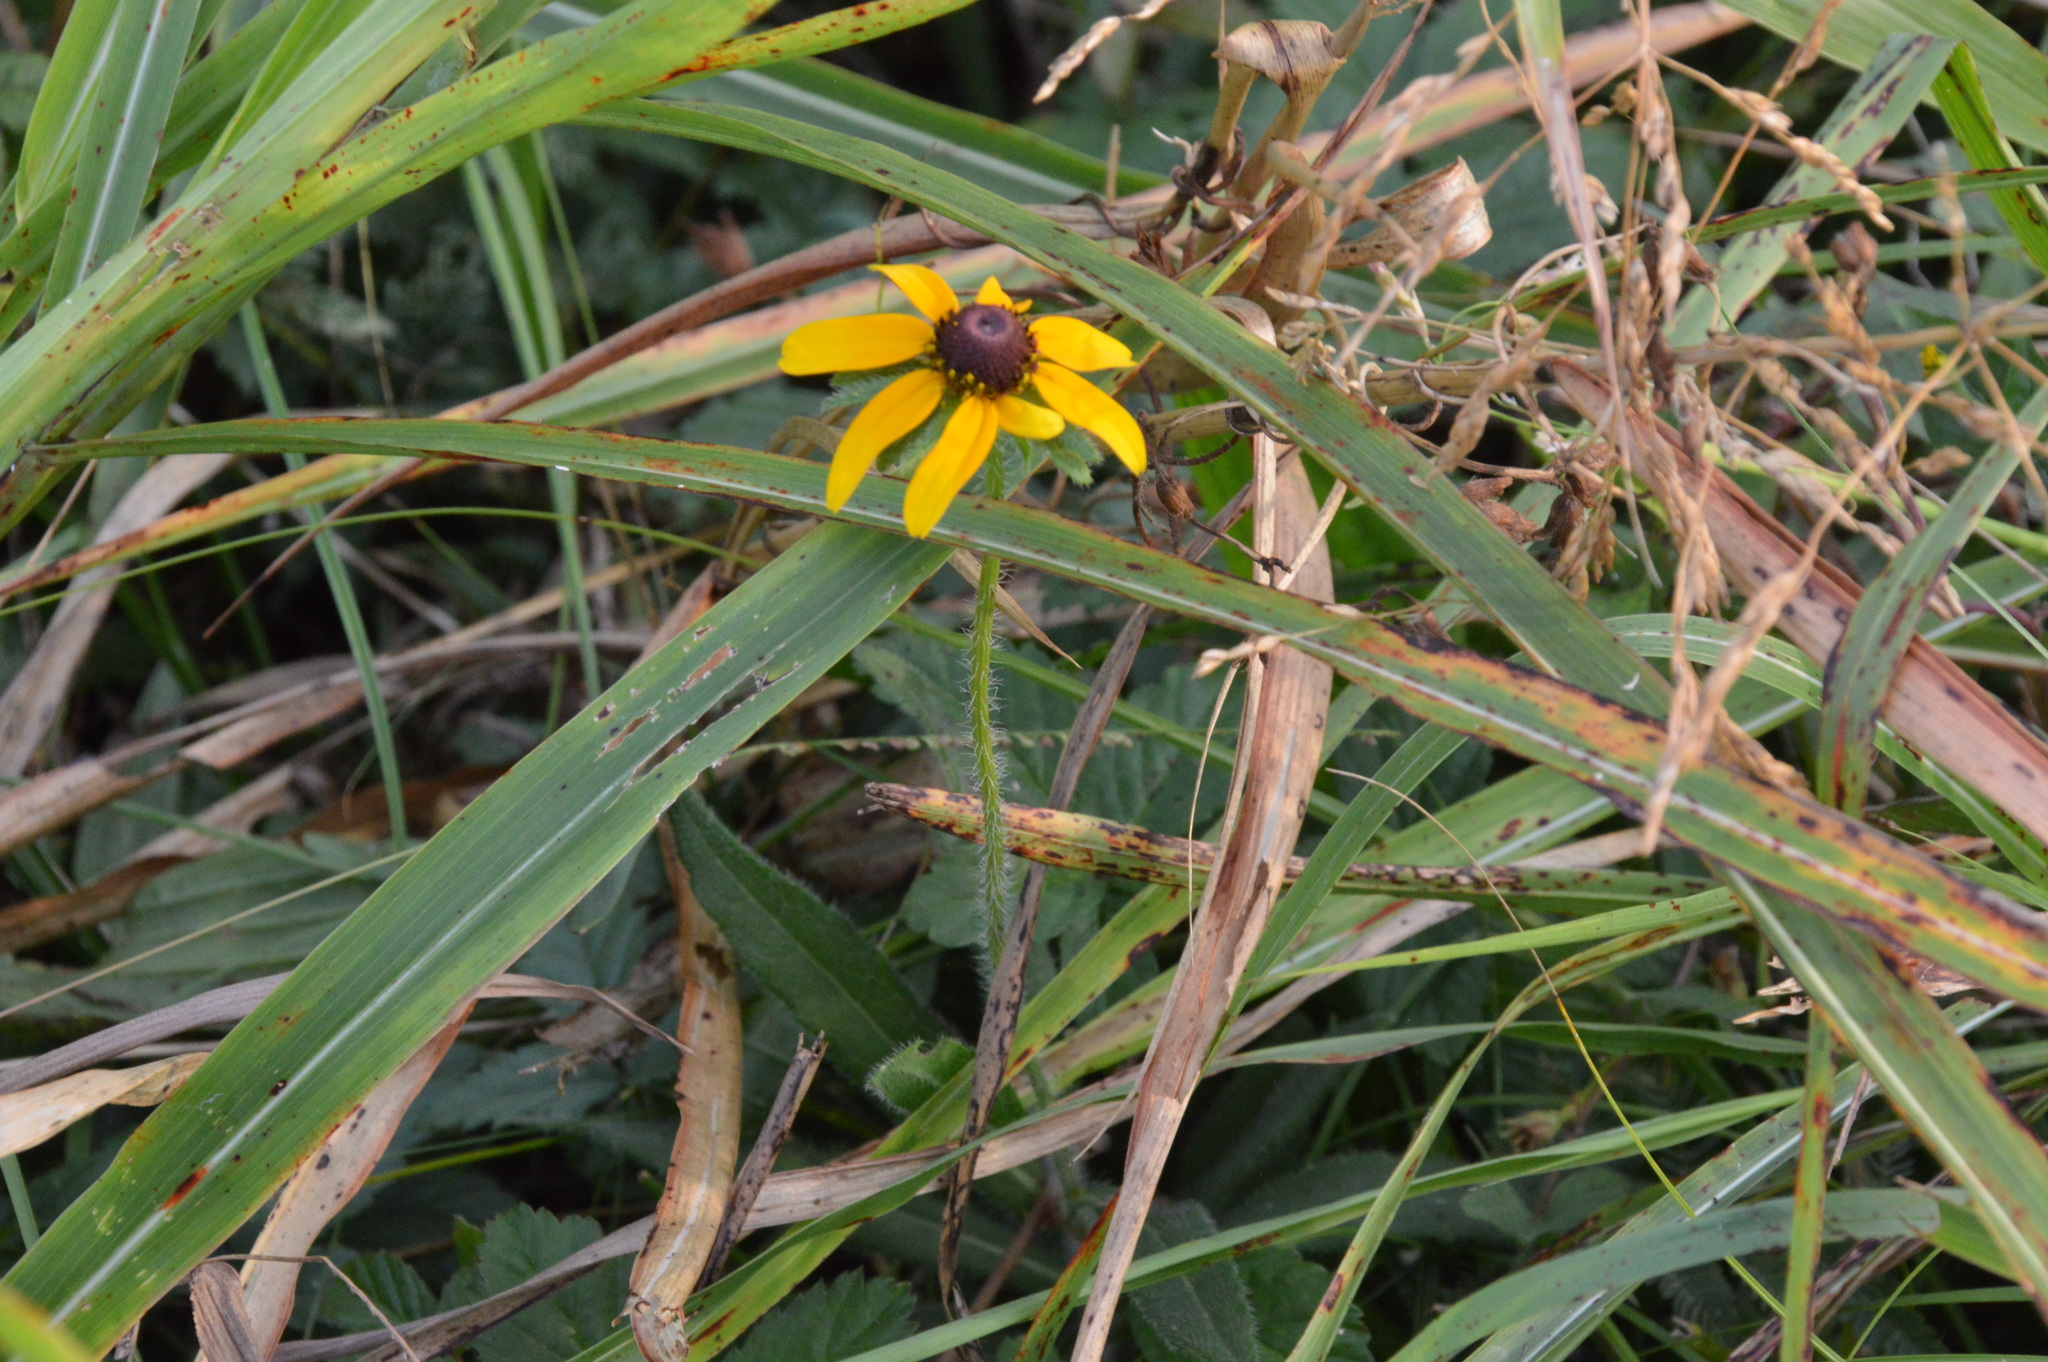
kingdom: Plantae
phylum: Tracheophyta
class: Magnoliopsida
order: Asterales
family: Asteraceae
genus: Rudbeckia
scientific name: Rudbeckia hirta
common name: Black-eyed-susan
